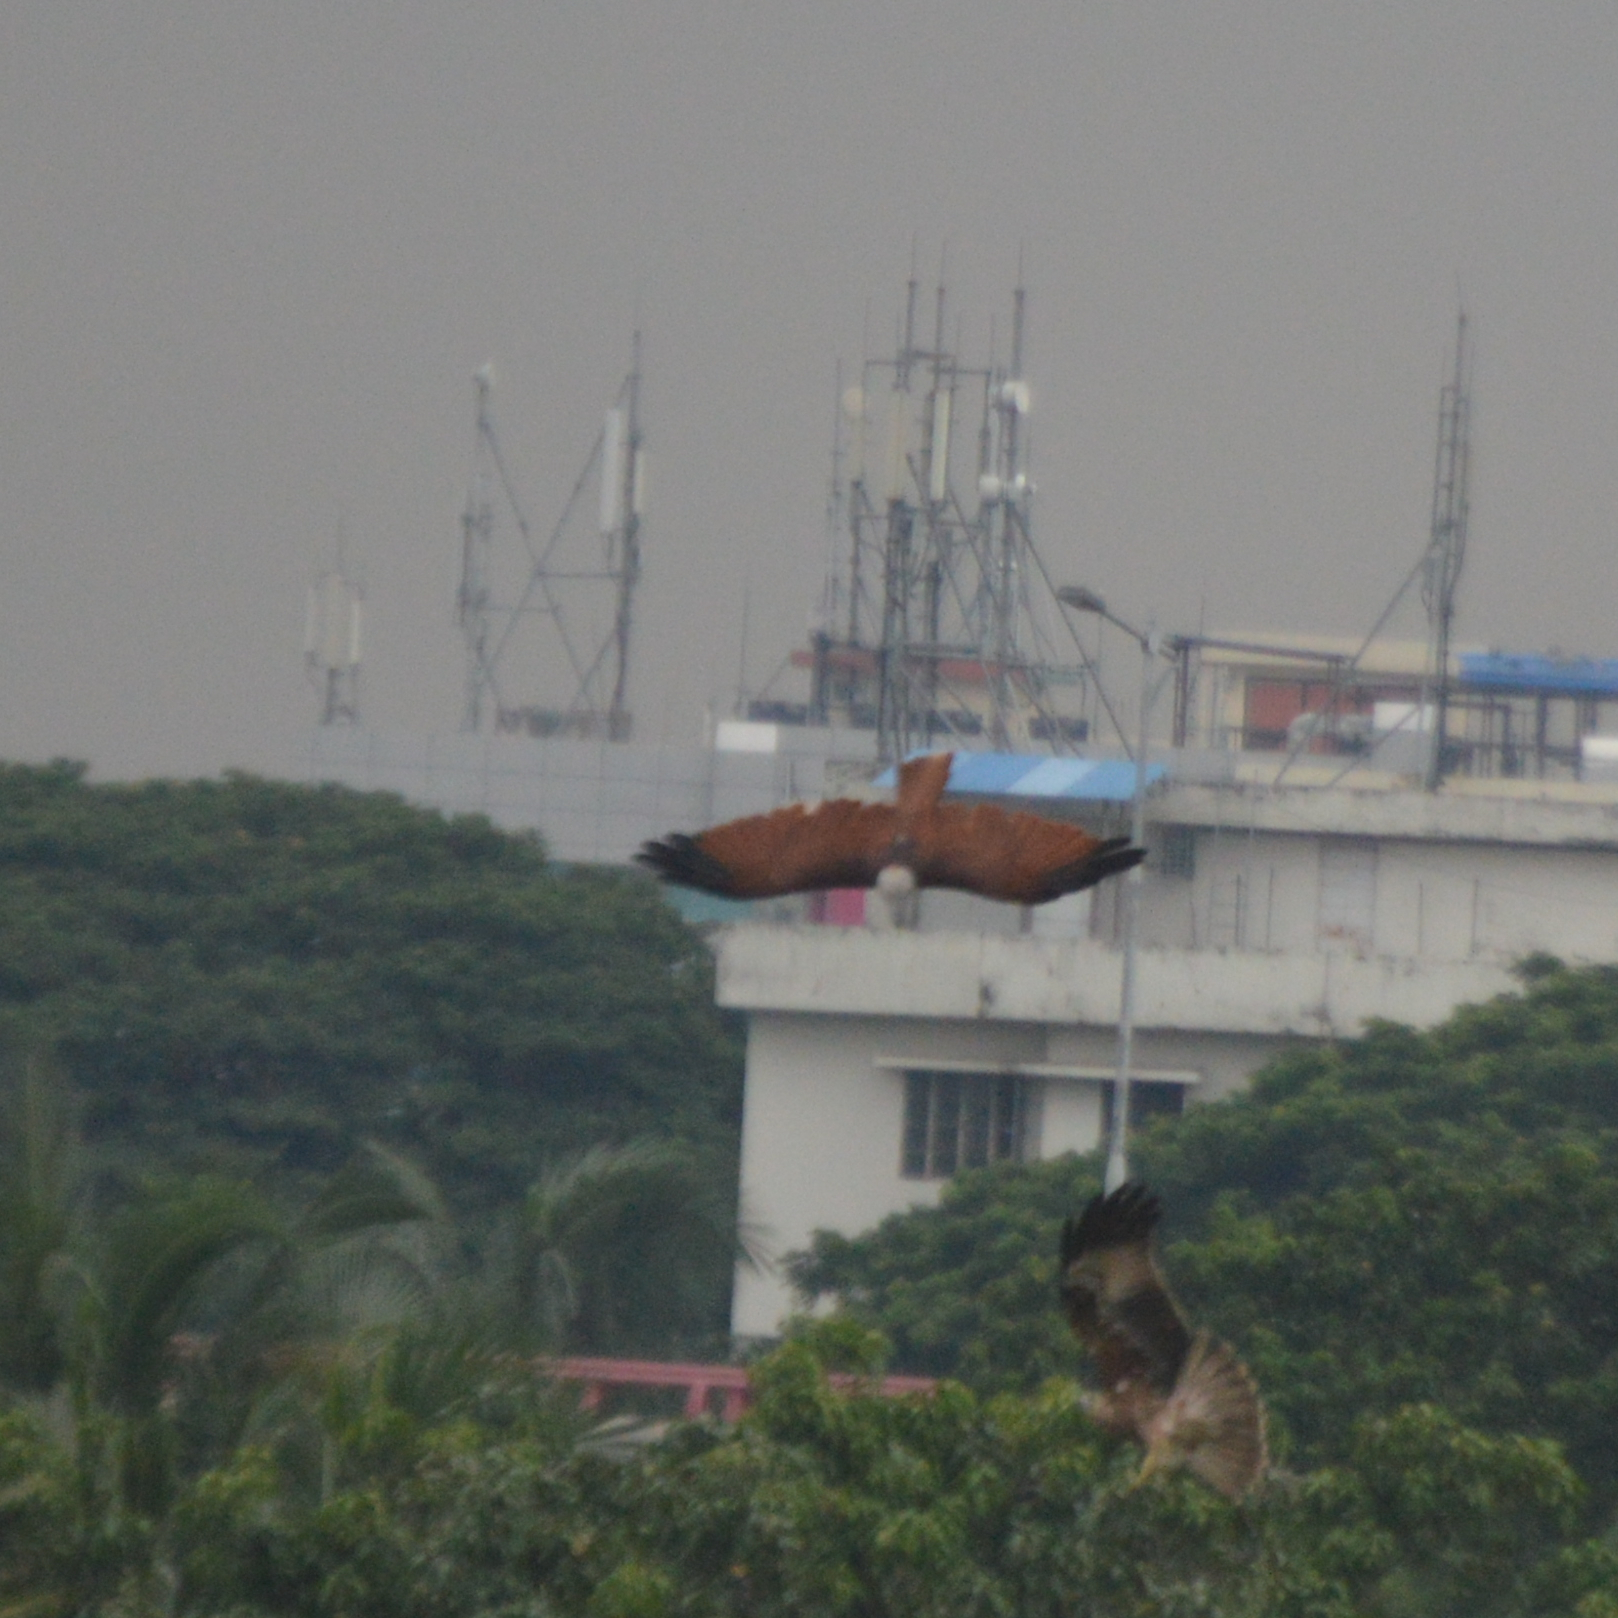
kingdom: Animalia
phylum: Chordata
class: Aves
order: Accipitriformes
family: Accipitridae
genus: Haliastur
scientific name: Haliastur indus
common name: Brahminy kite
